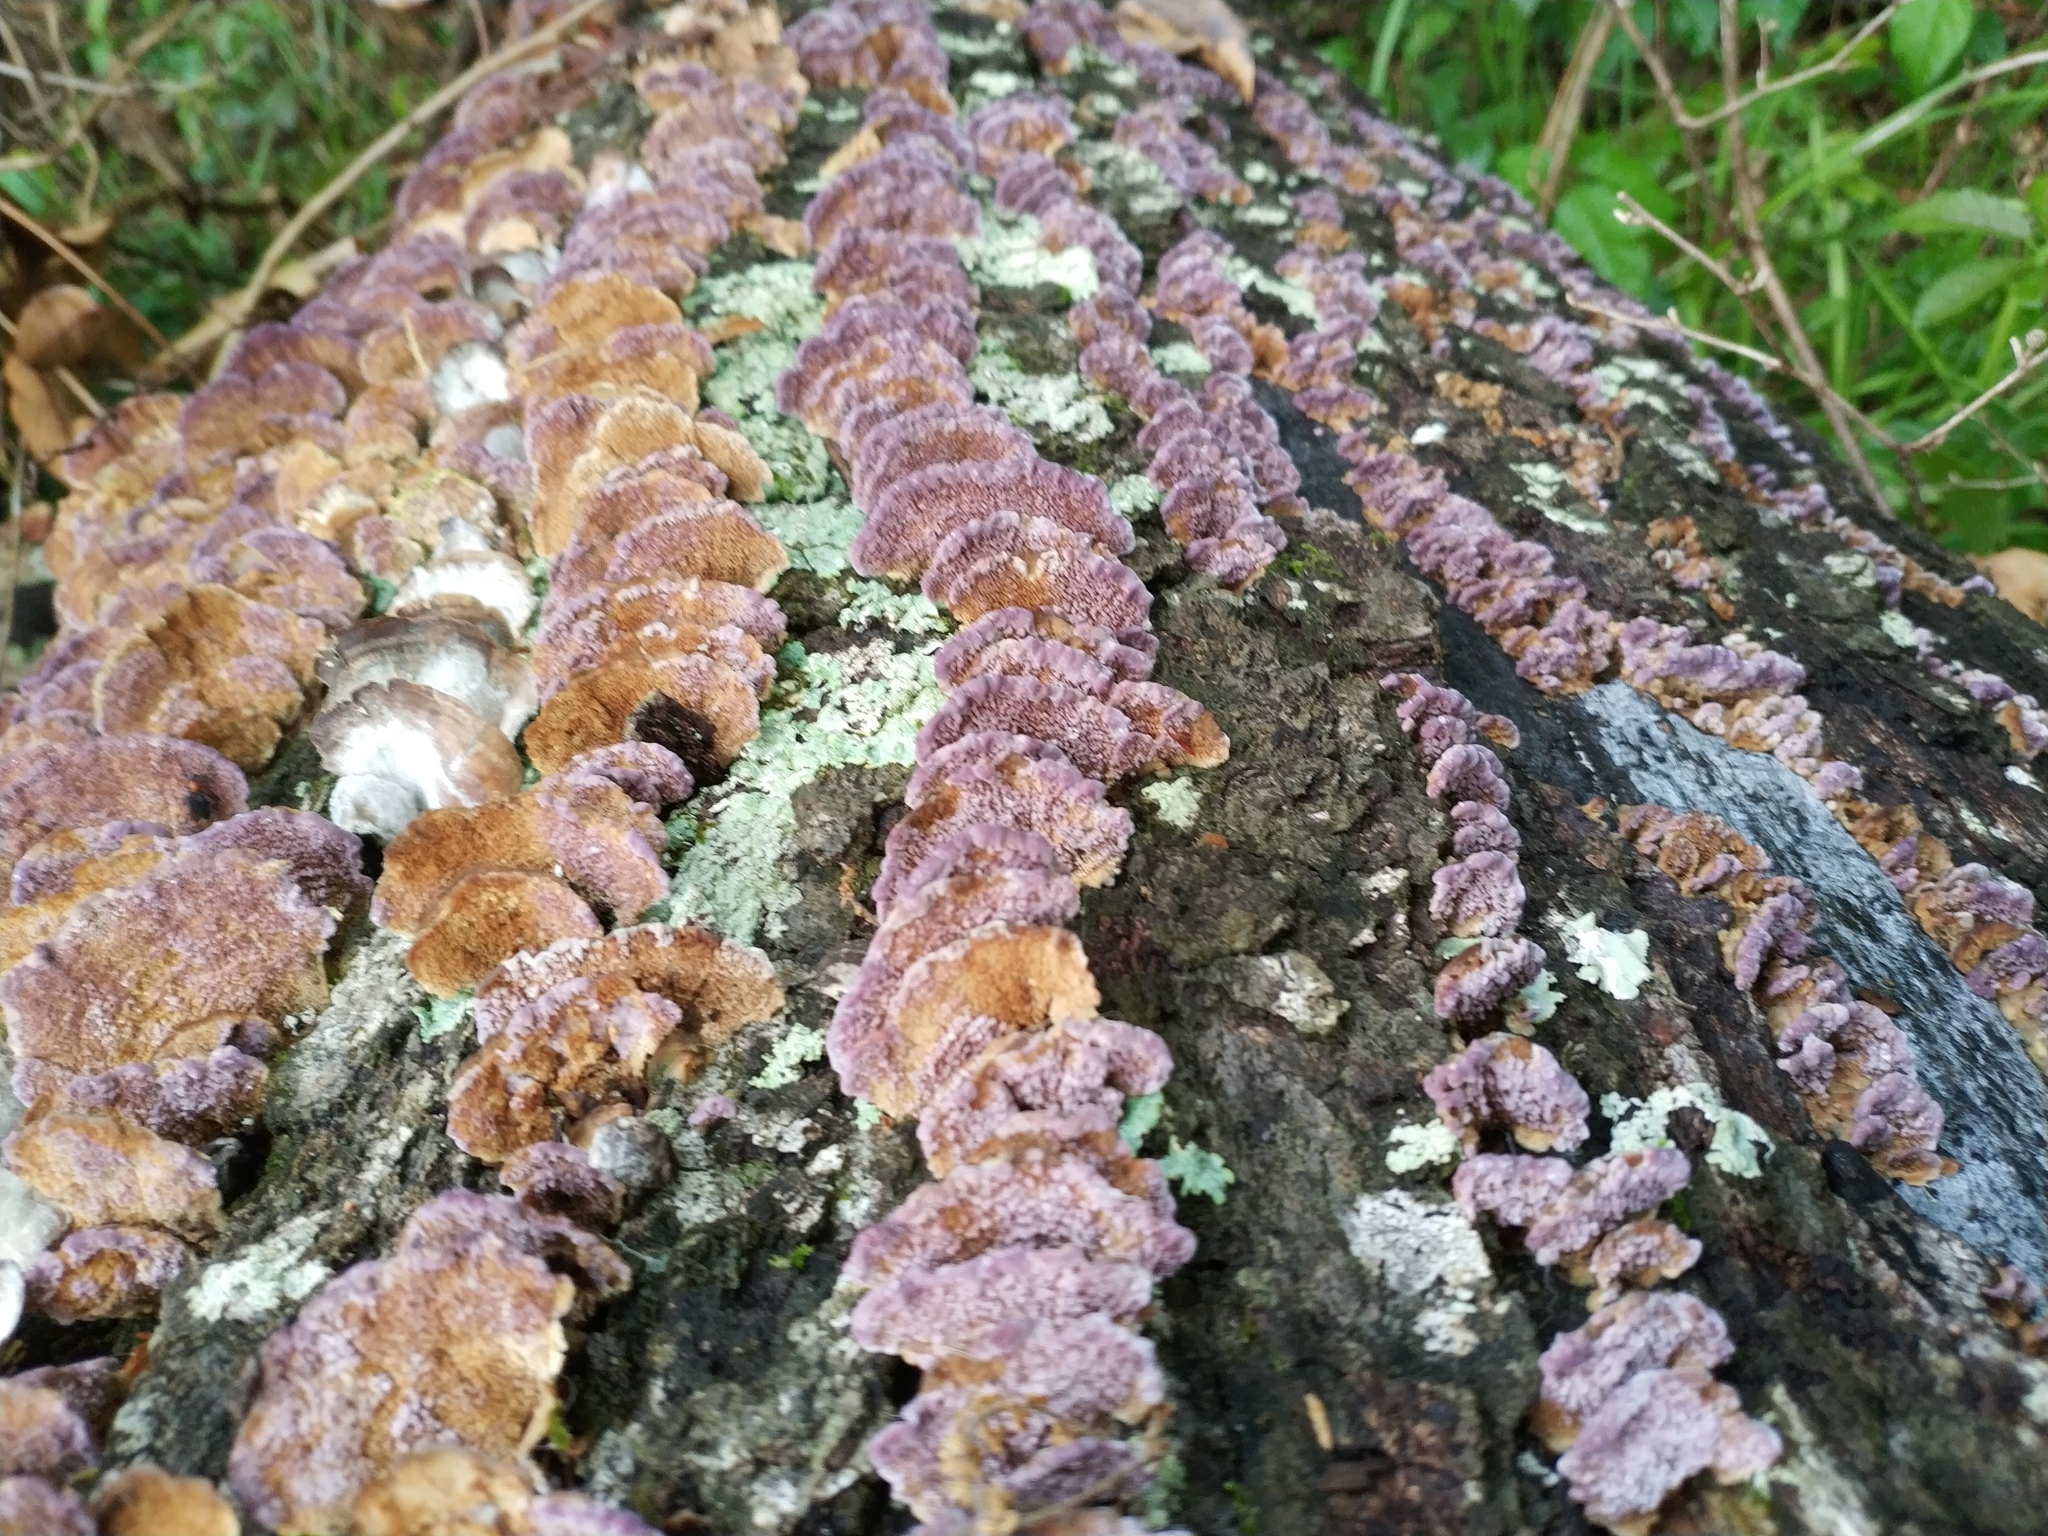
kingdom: Fungi
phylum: Basidiomycota
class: Agaricomycetes
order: Hymenochaetales
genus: Trichaptum
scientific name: Trichaptum biforme
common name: Violet-toothed polypore
